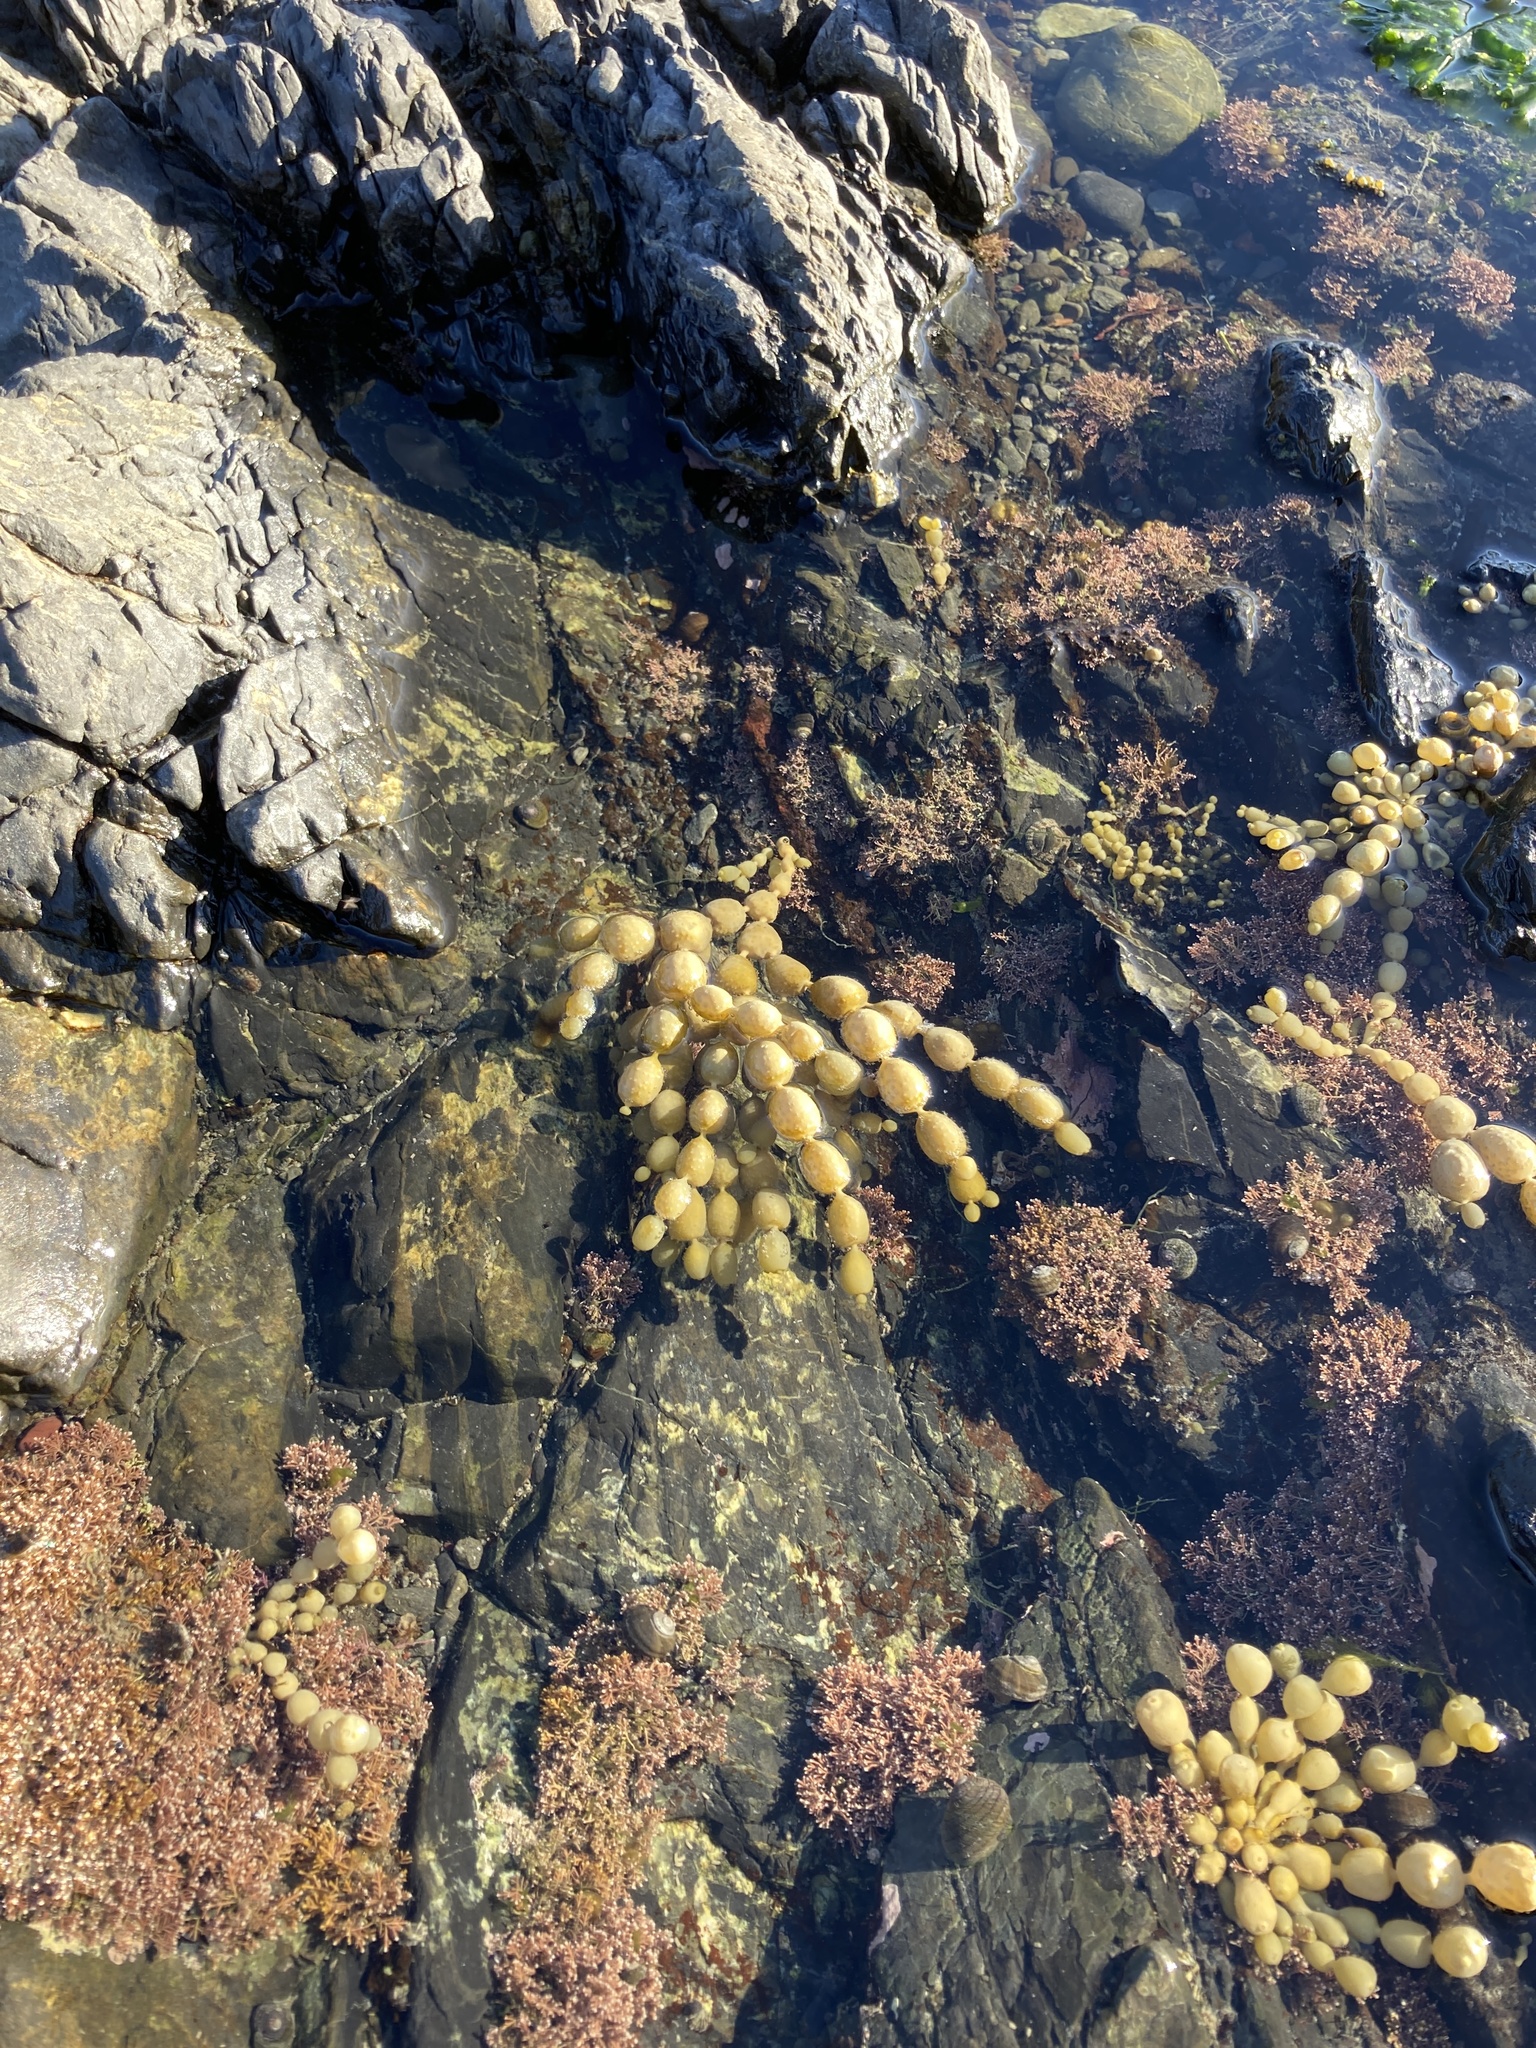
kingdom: Chromista
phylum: Ochrophyta
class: Phaeophyceae
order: Fucales
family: Hormosiraceae
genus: Hormosira
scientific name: Hormosira banksii
